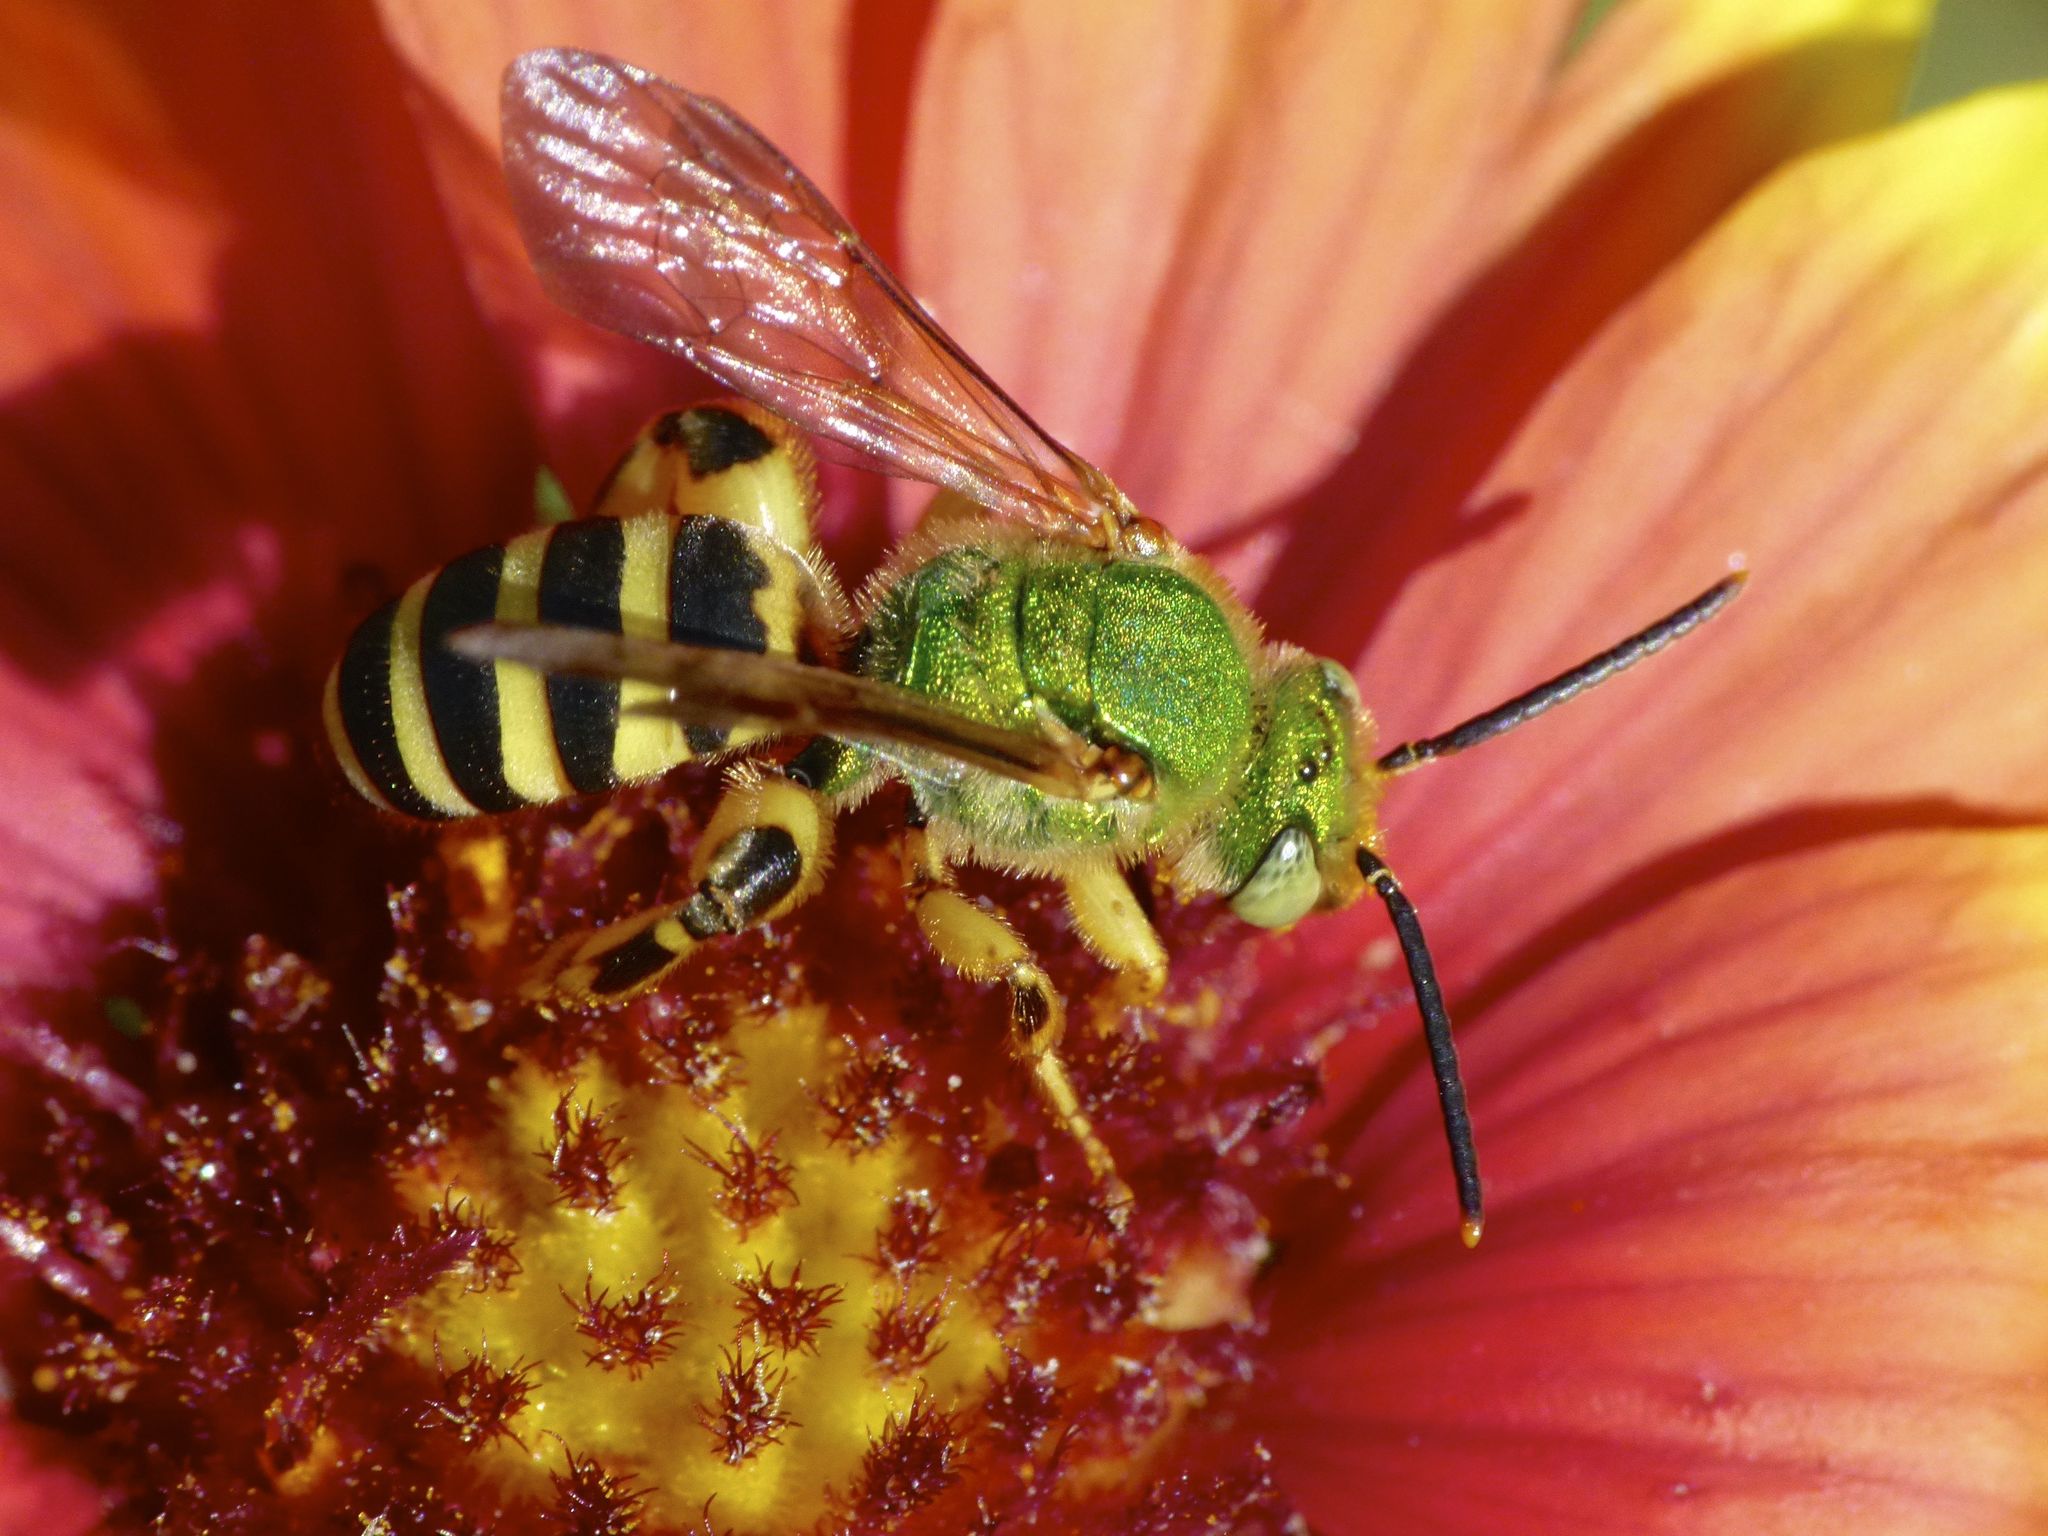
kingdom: Animalia
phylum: Arthropoda
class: Insecta
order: Hymenoptera
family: Halictidae
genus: Agapostemon
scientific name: Agapostemon splendens
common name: Brown-winged striped sweat bee
